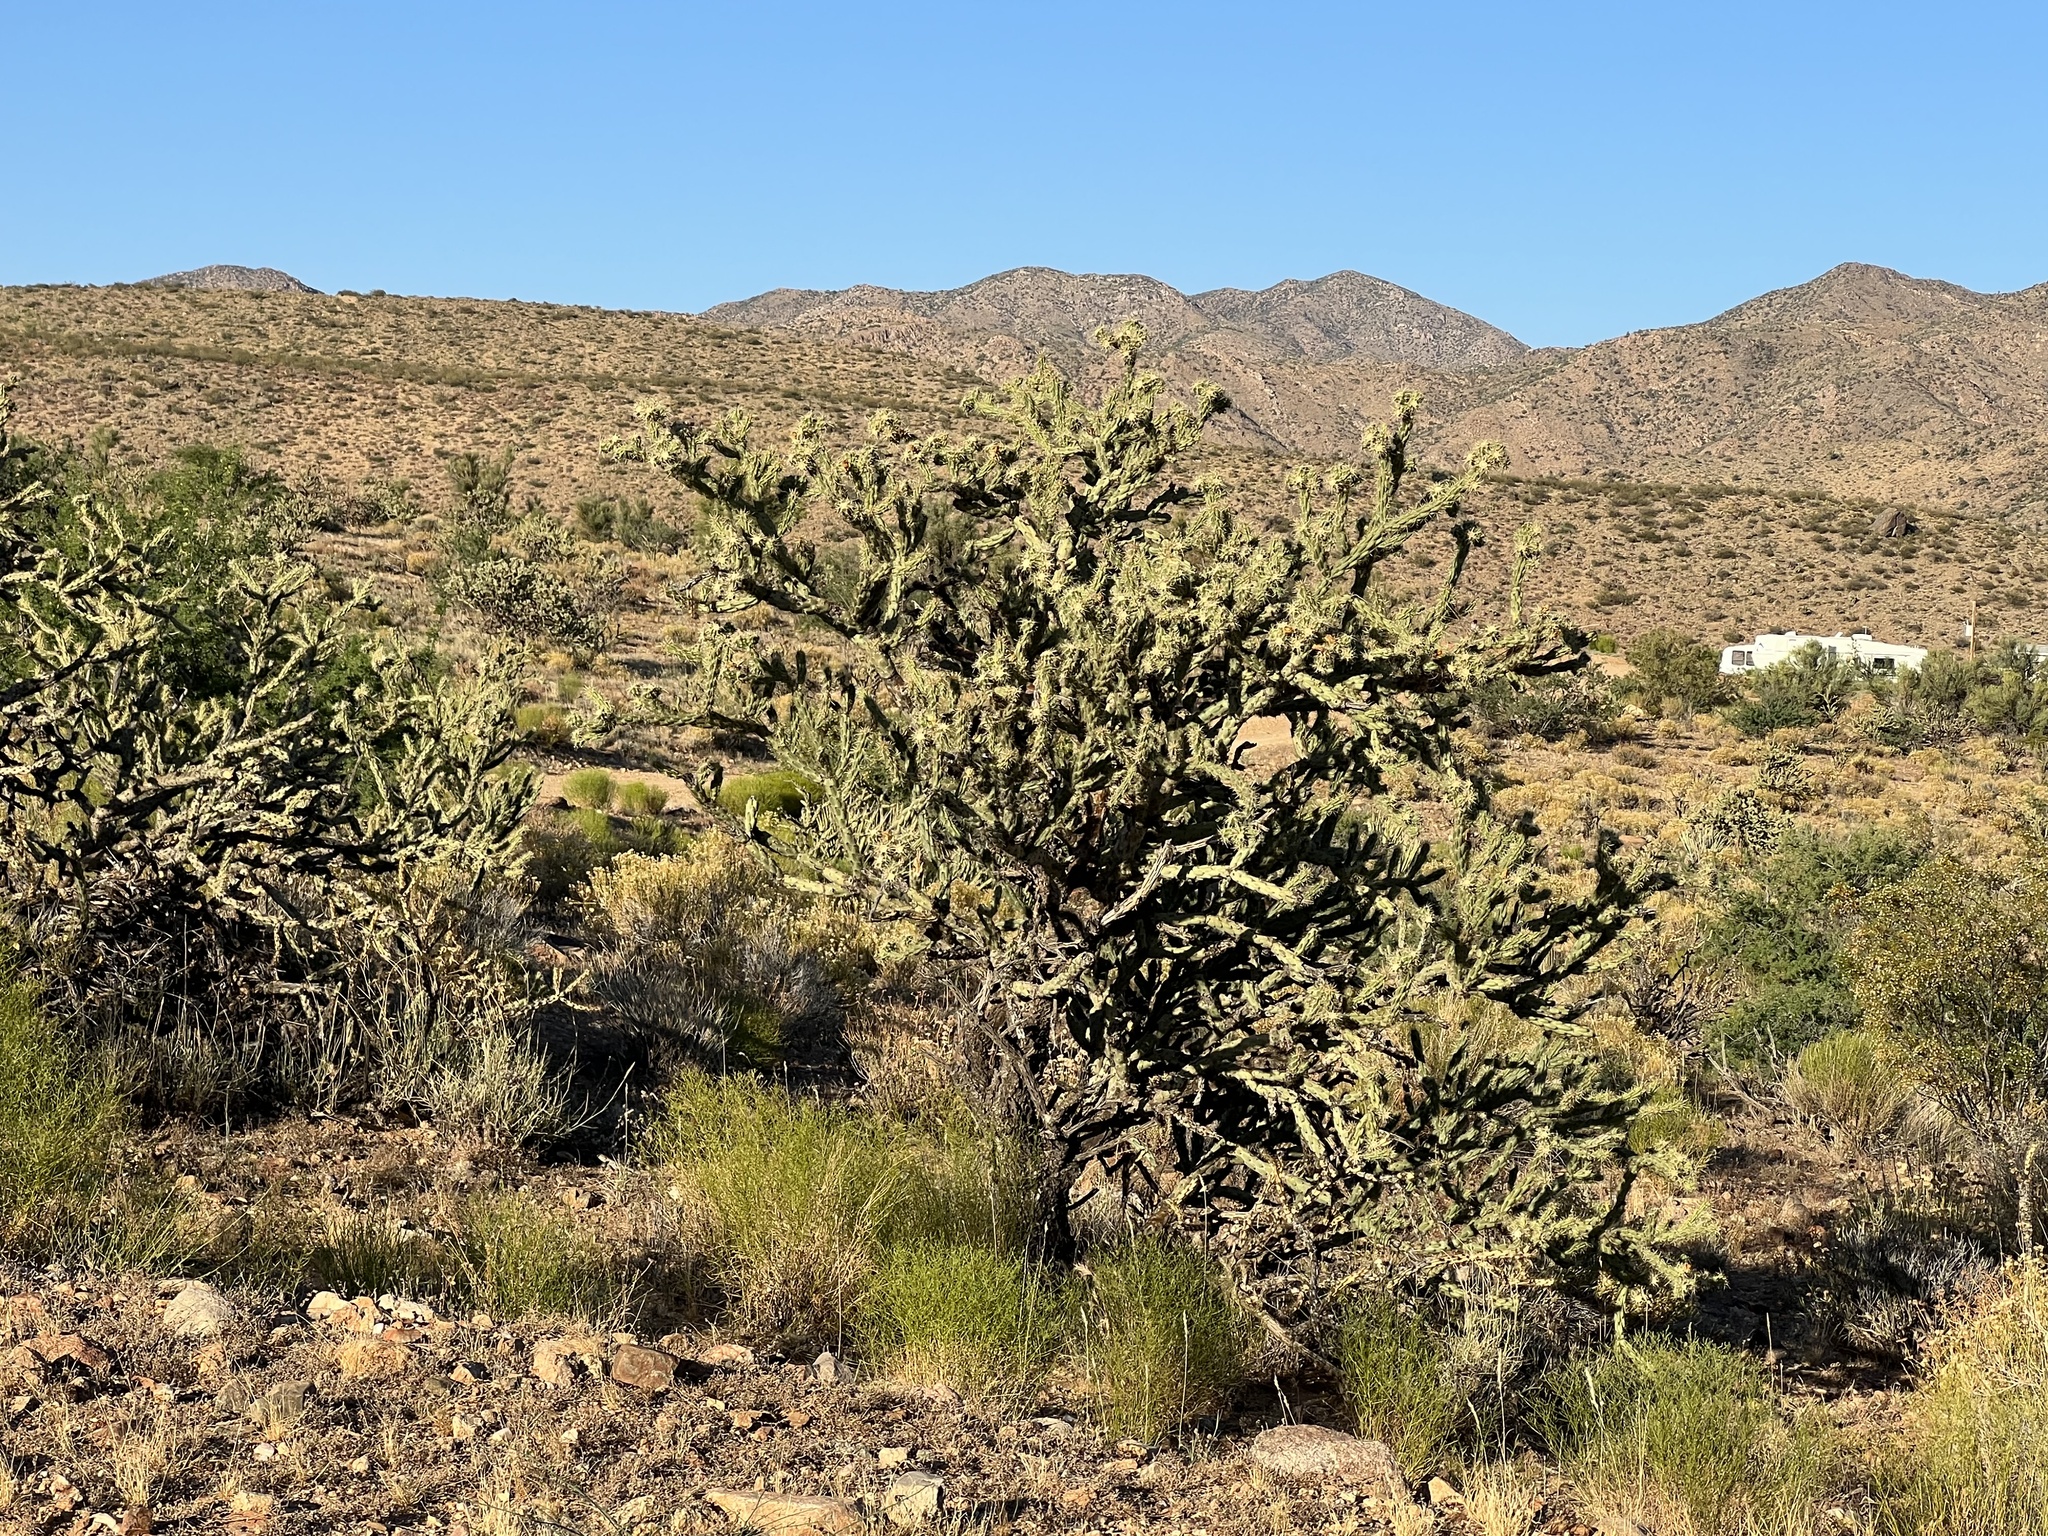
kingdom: Plantae
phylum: Tracheophyta
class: Magnoliopsida
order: Caryophyllales
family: Cactaceae
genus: Cylindropuntia
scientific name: Cylindropuntia acanthocarpa
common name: Buckhorn cholla
